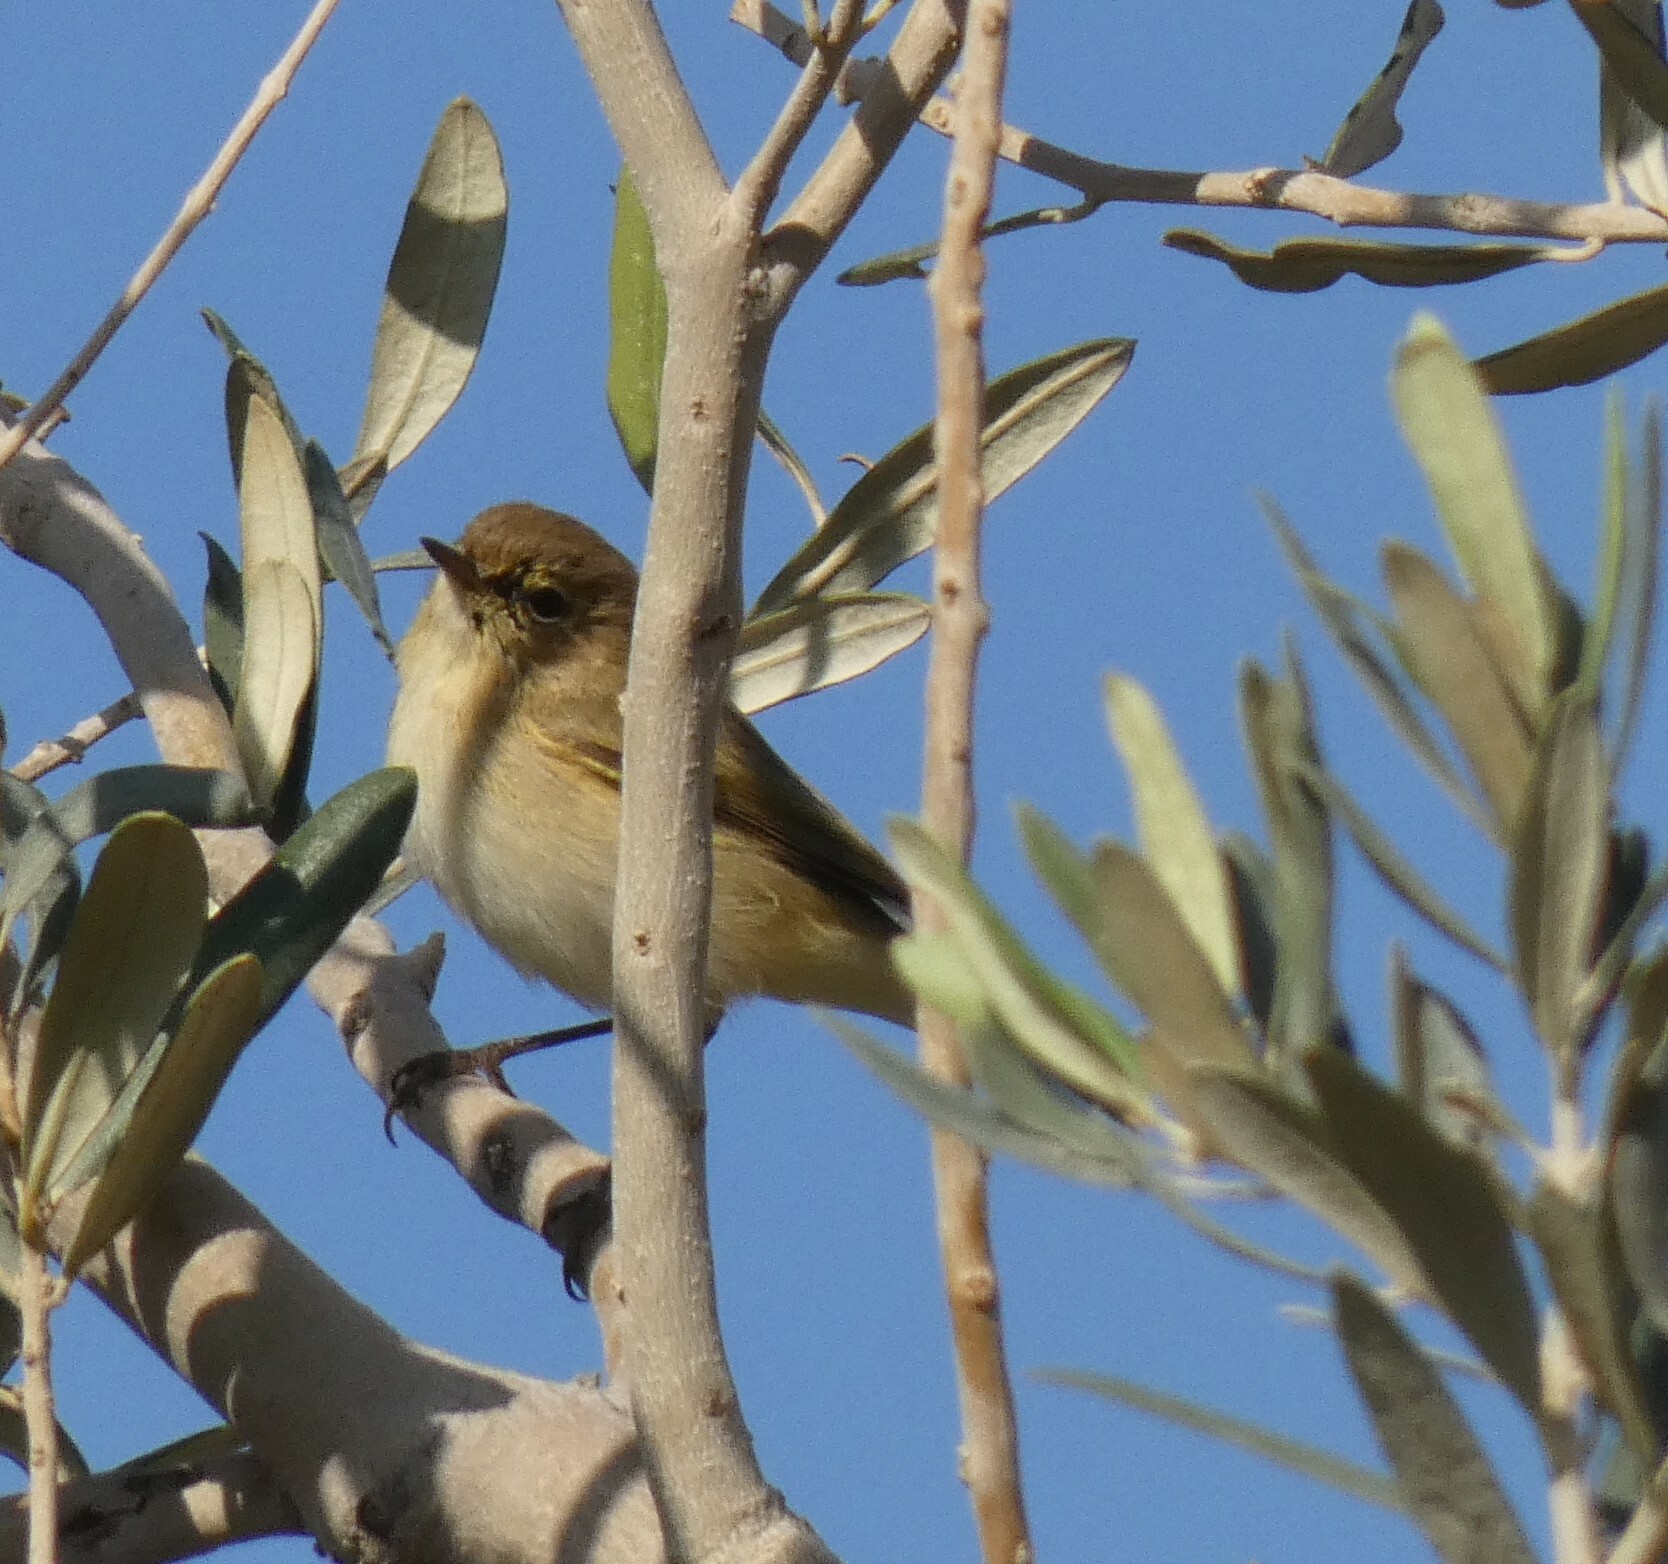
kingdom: Animalia
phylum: Chordata
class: Aves
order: Passeriformes
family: Phylloscopidae
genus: Phylloscopus
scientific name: Phylloscopus collybita
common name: Common chiffchaff
